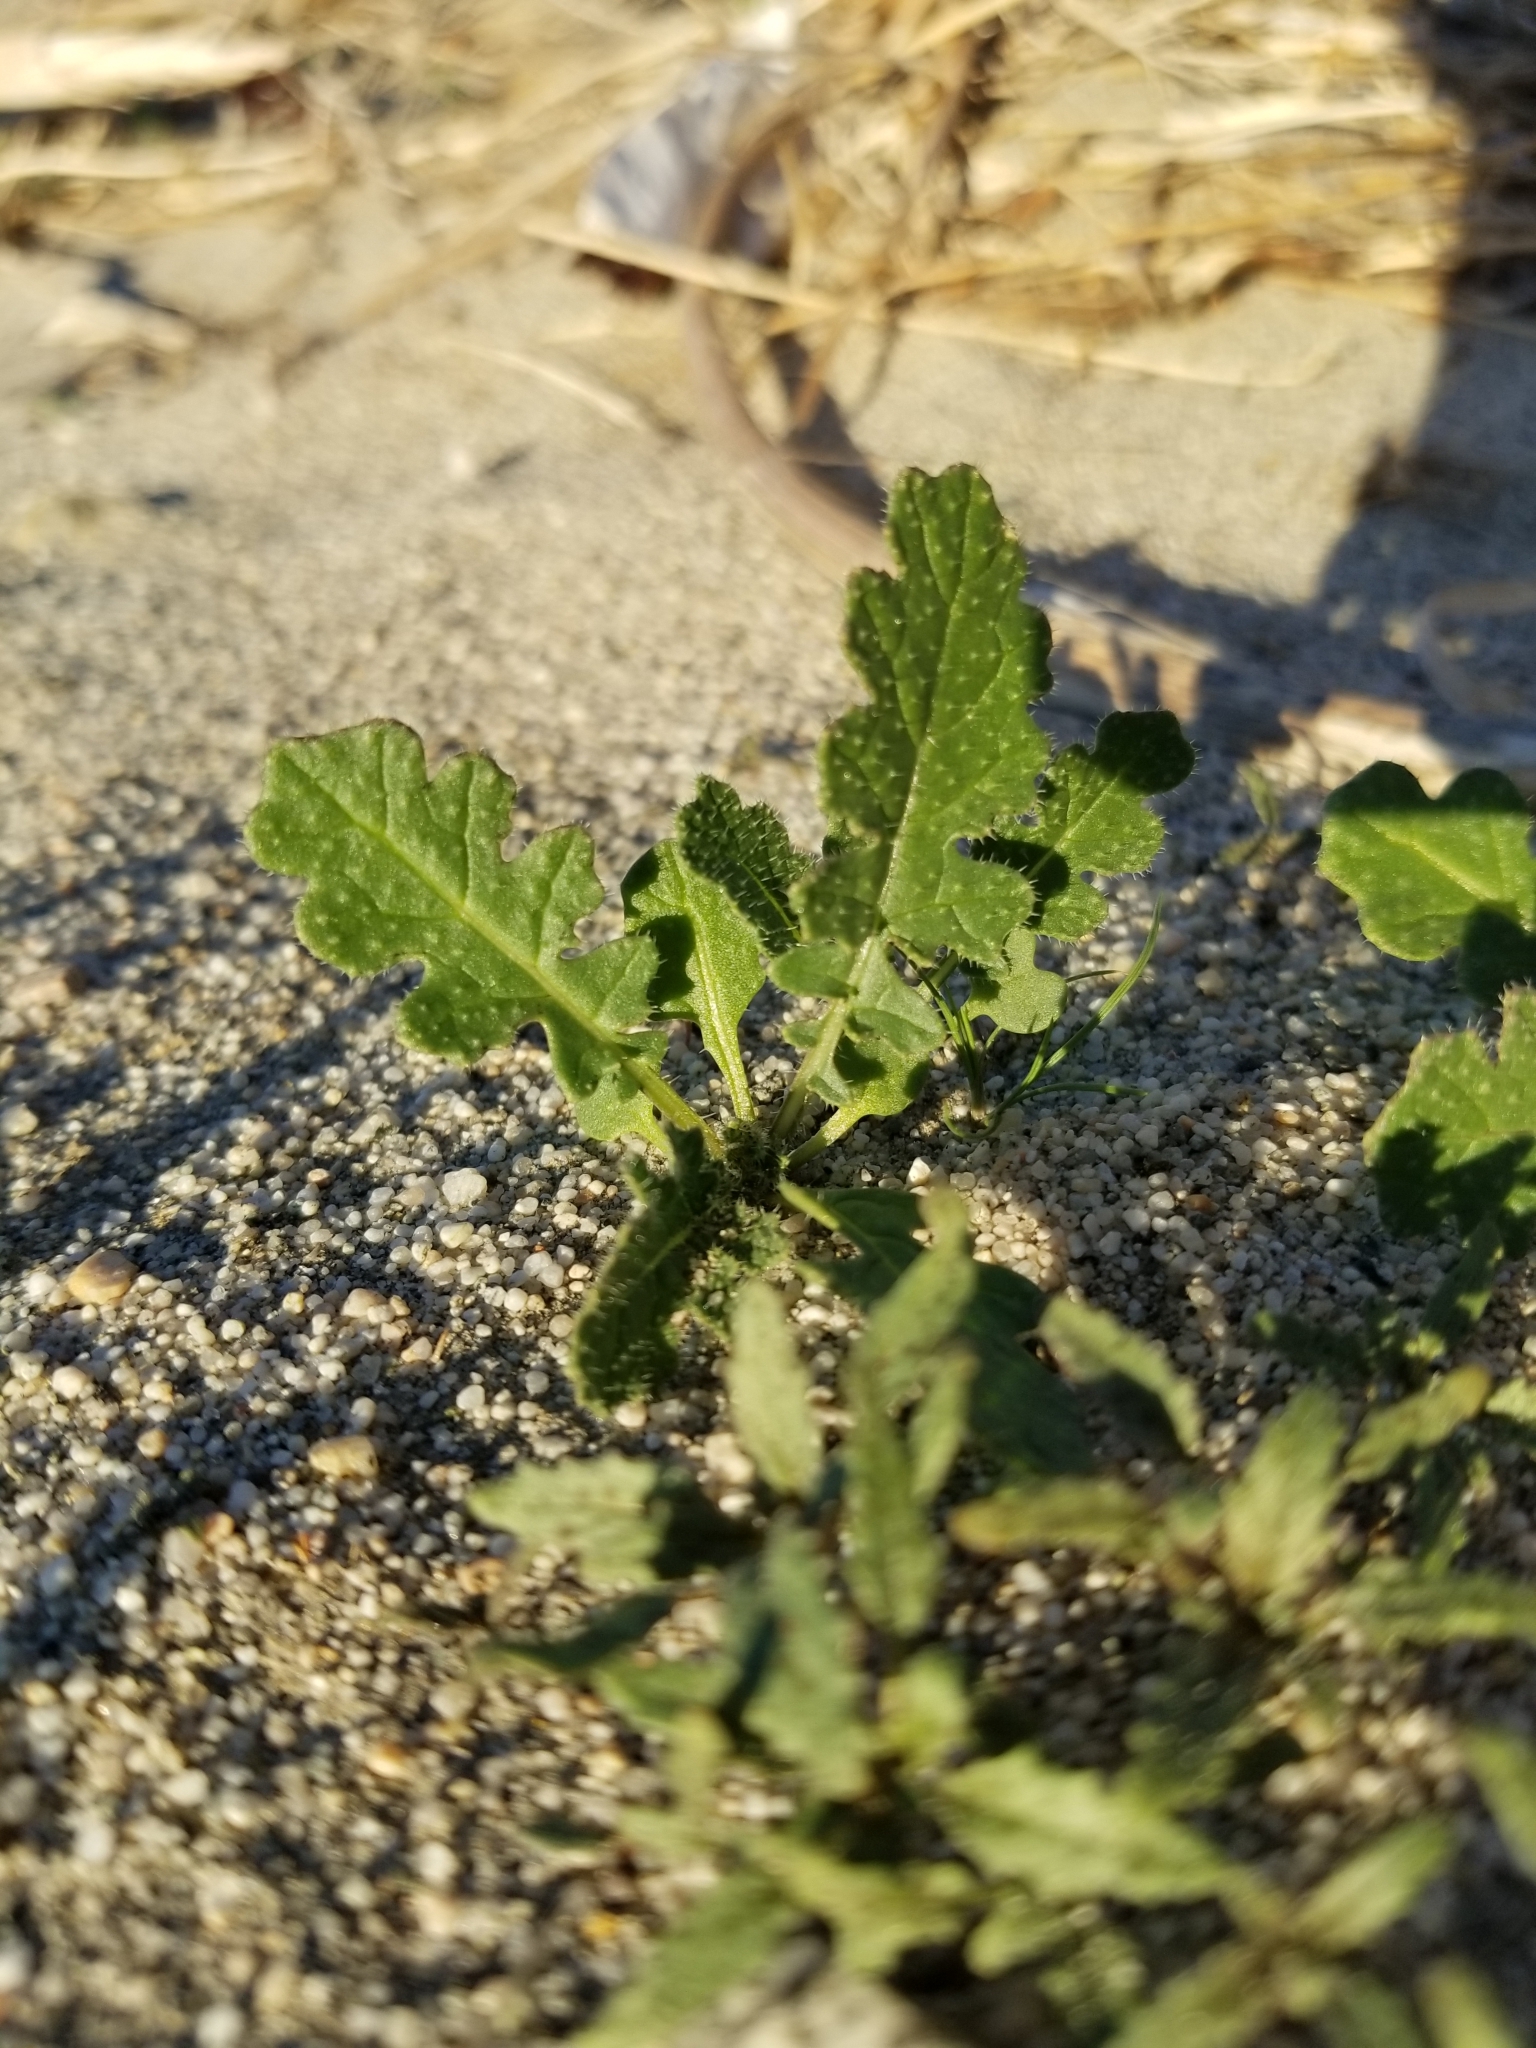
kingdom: Plantae
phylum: Tracheophyta
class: Magnoliopsida
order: Brassicales
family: Brassicaceae
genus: Brassica
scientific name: Brassica tournefortii
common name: Pale cabbage
